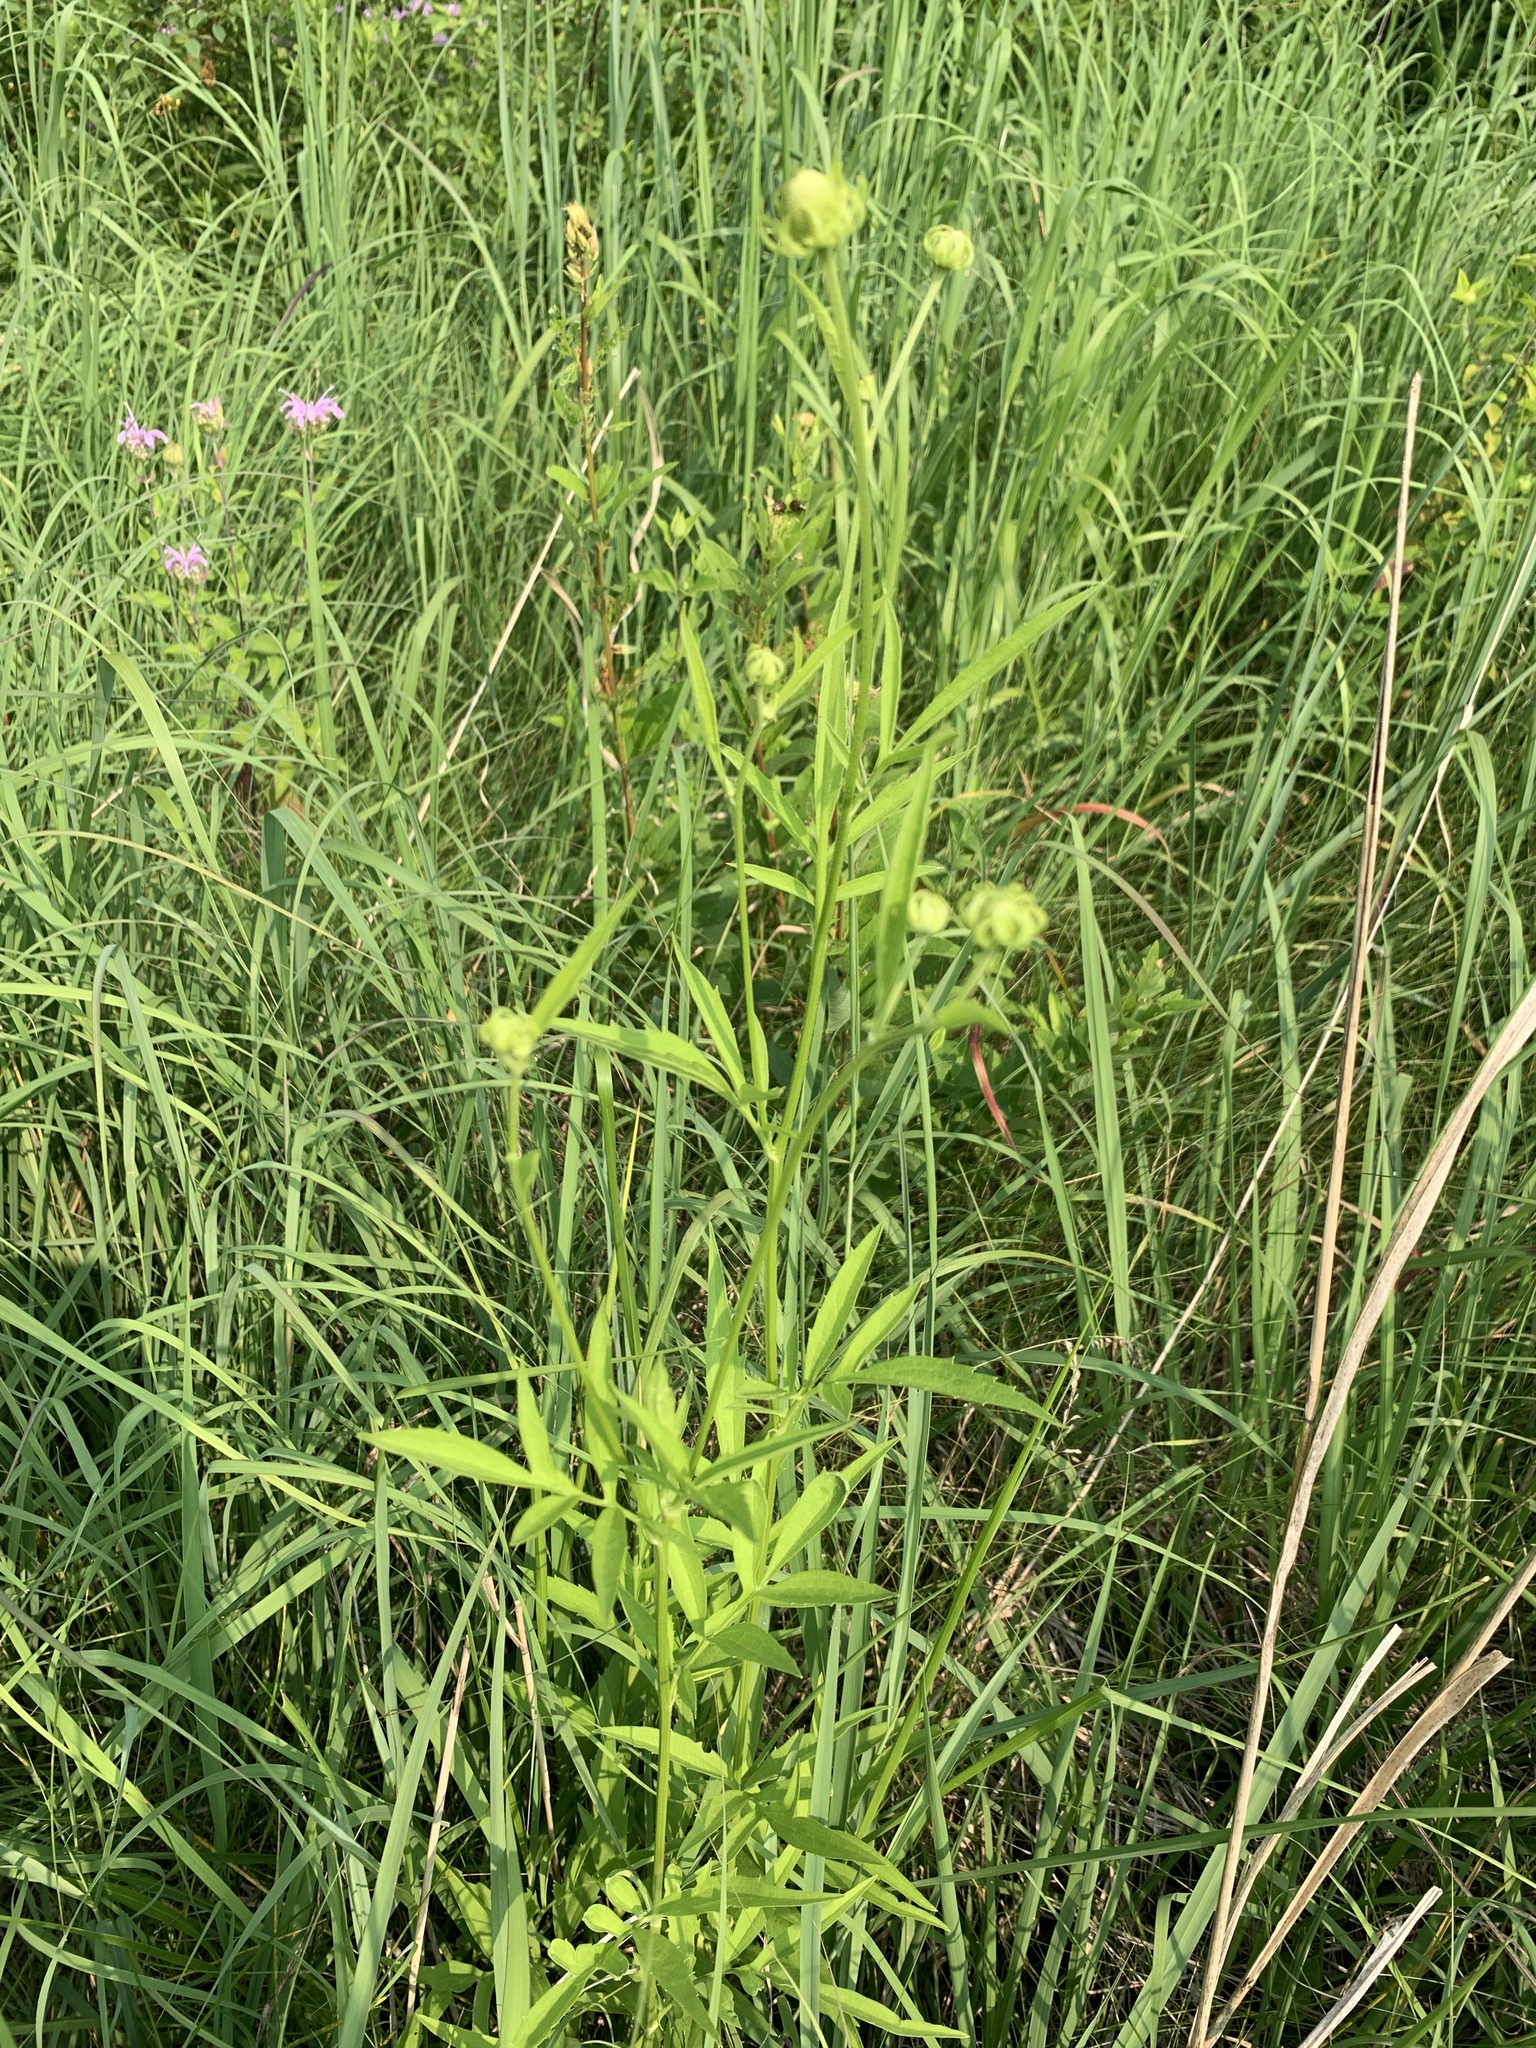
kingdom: Plantae
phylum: Tracheophyta
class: Magnoliopsida
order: Asterales
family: Asteraceae
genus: Ratibida
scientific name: Ratibida pinnata
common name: Drooping prairie-coneflower
